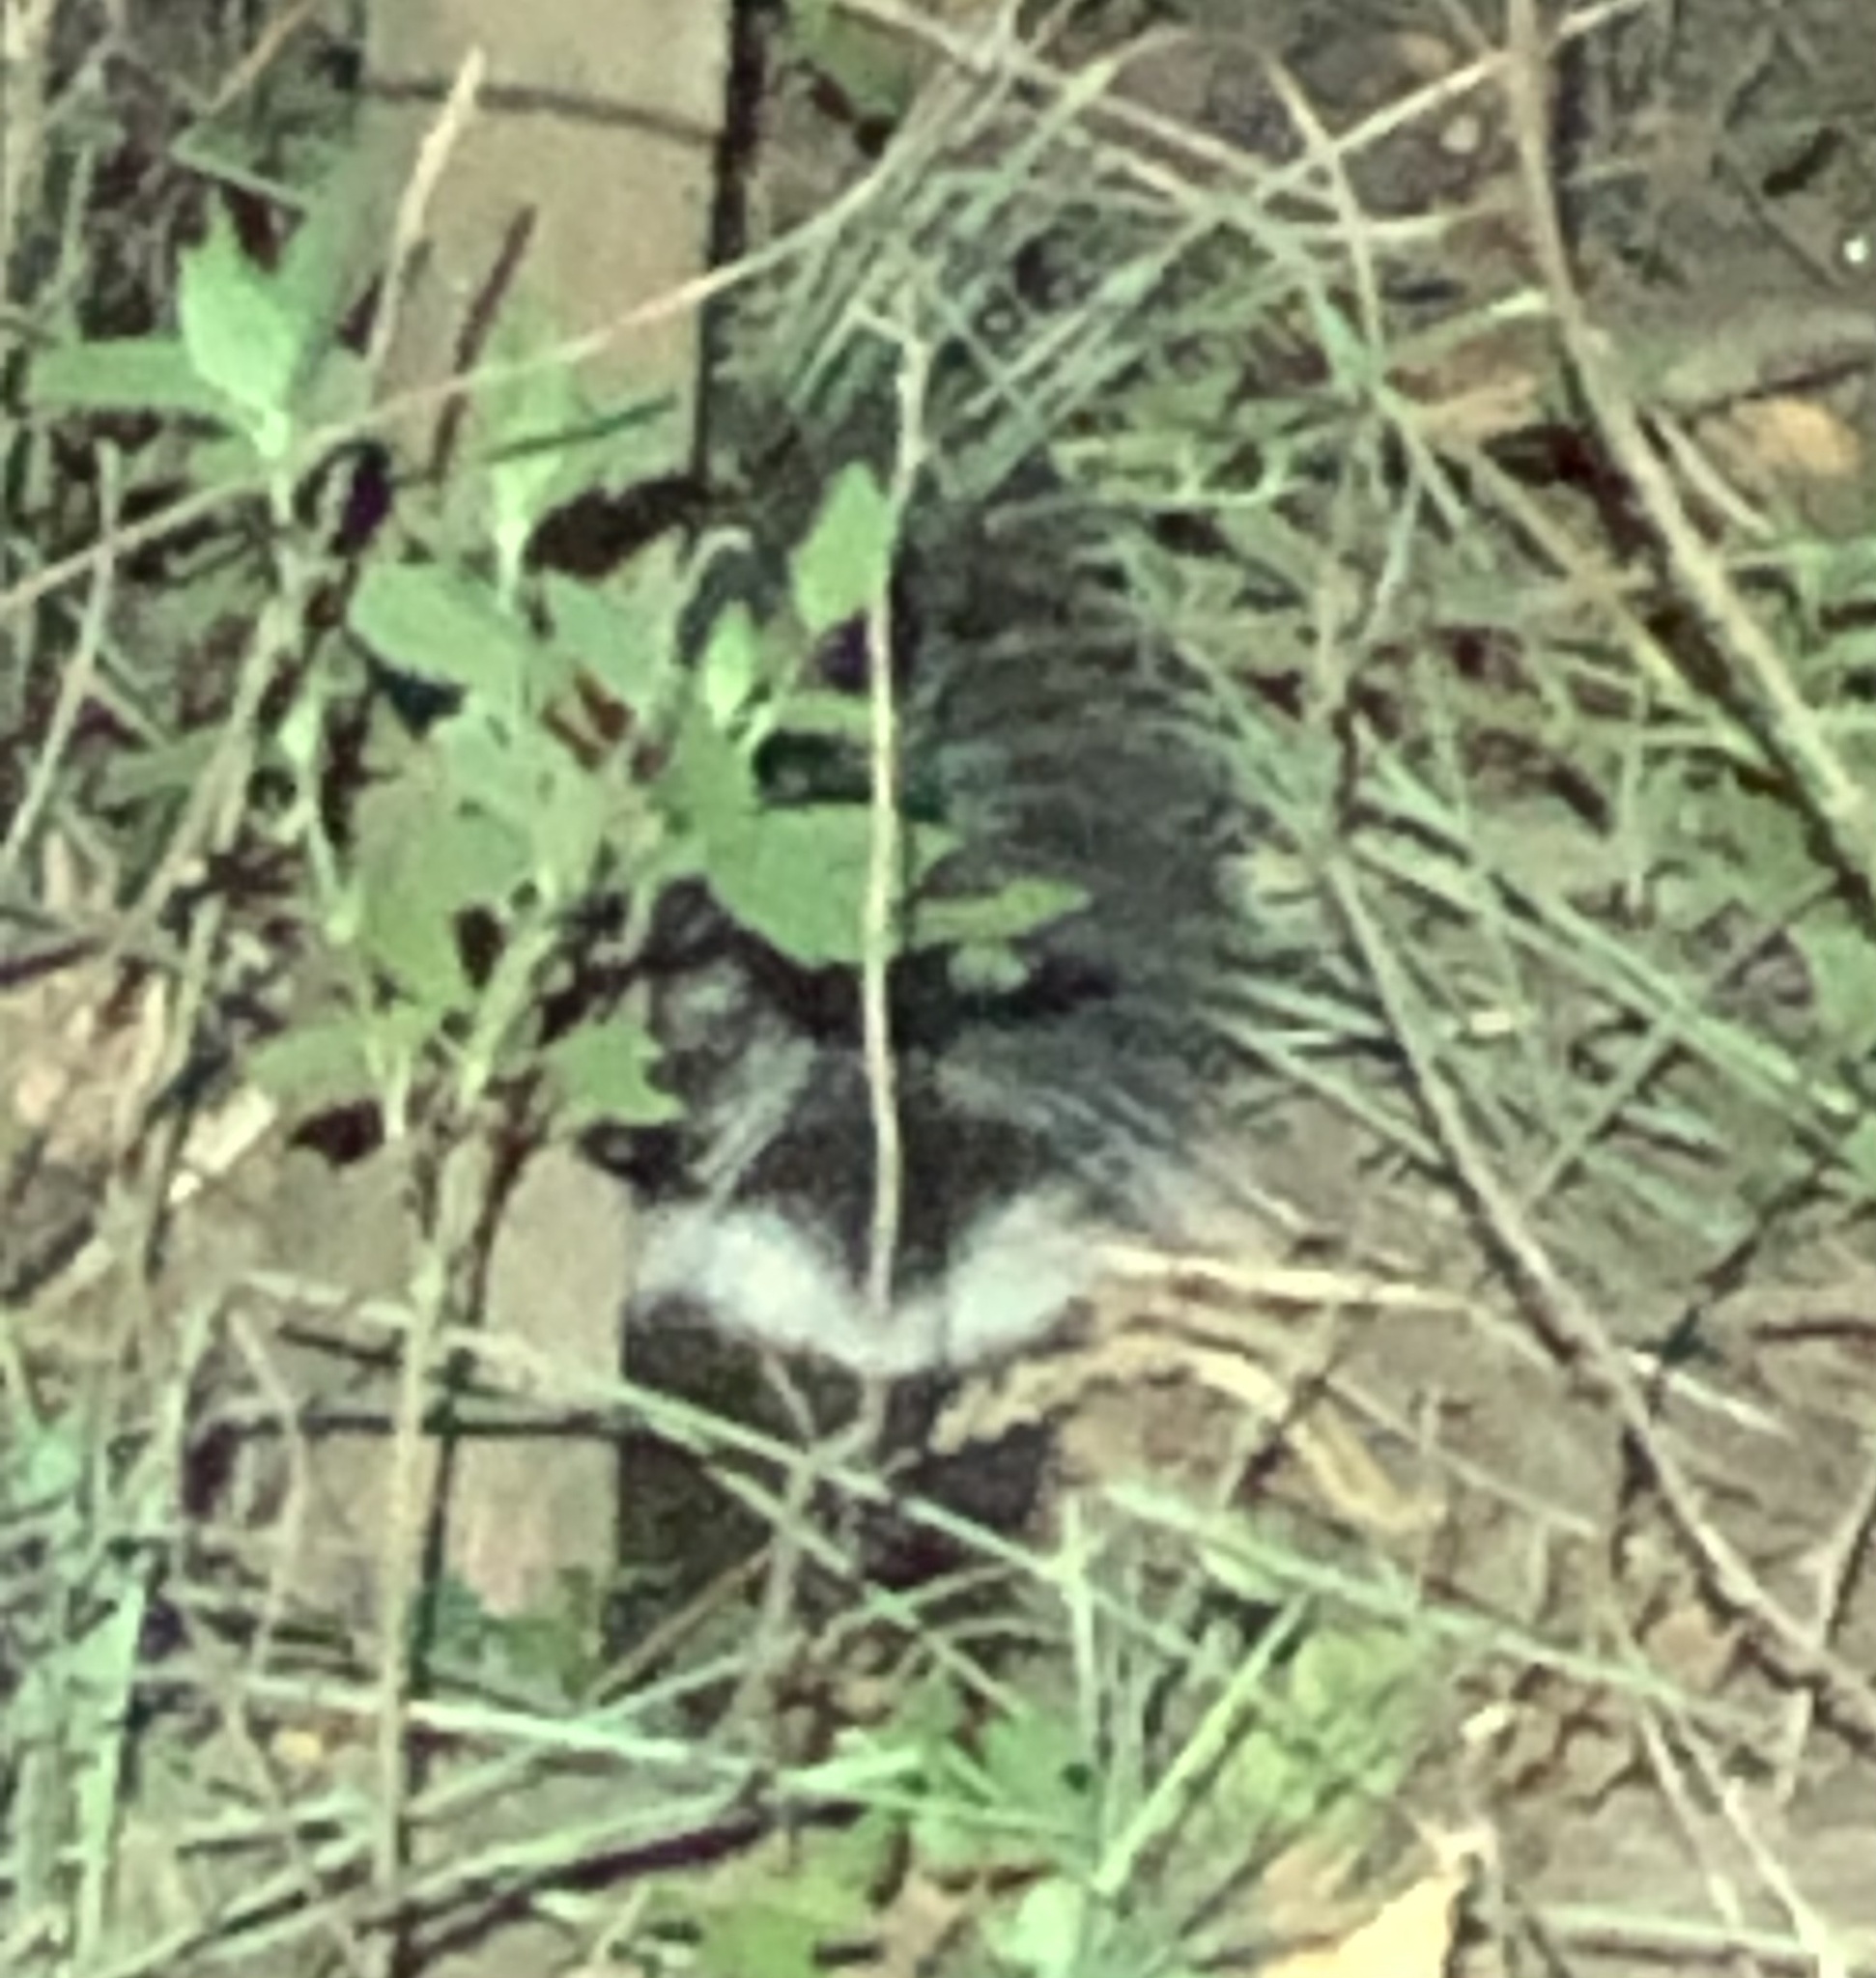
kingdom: Animalia
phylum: Chordata
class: Mammalia
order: Carnivora
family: Mephitidae
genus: Mephitis
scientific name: Mephitis mephitis
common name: Striped skunk
